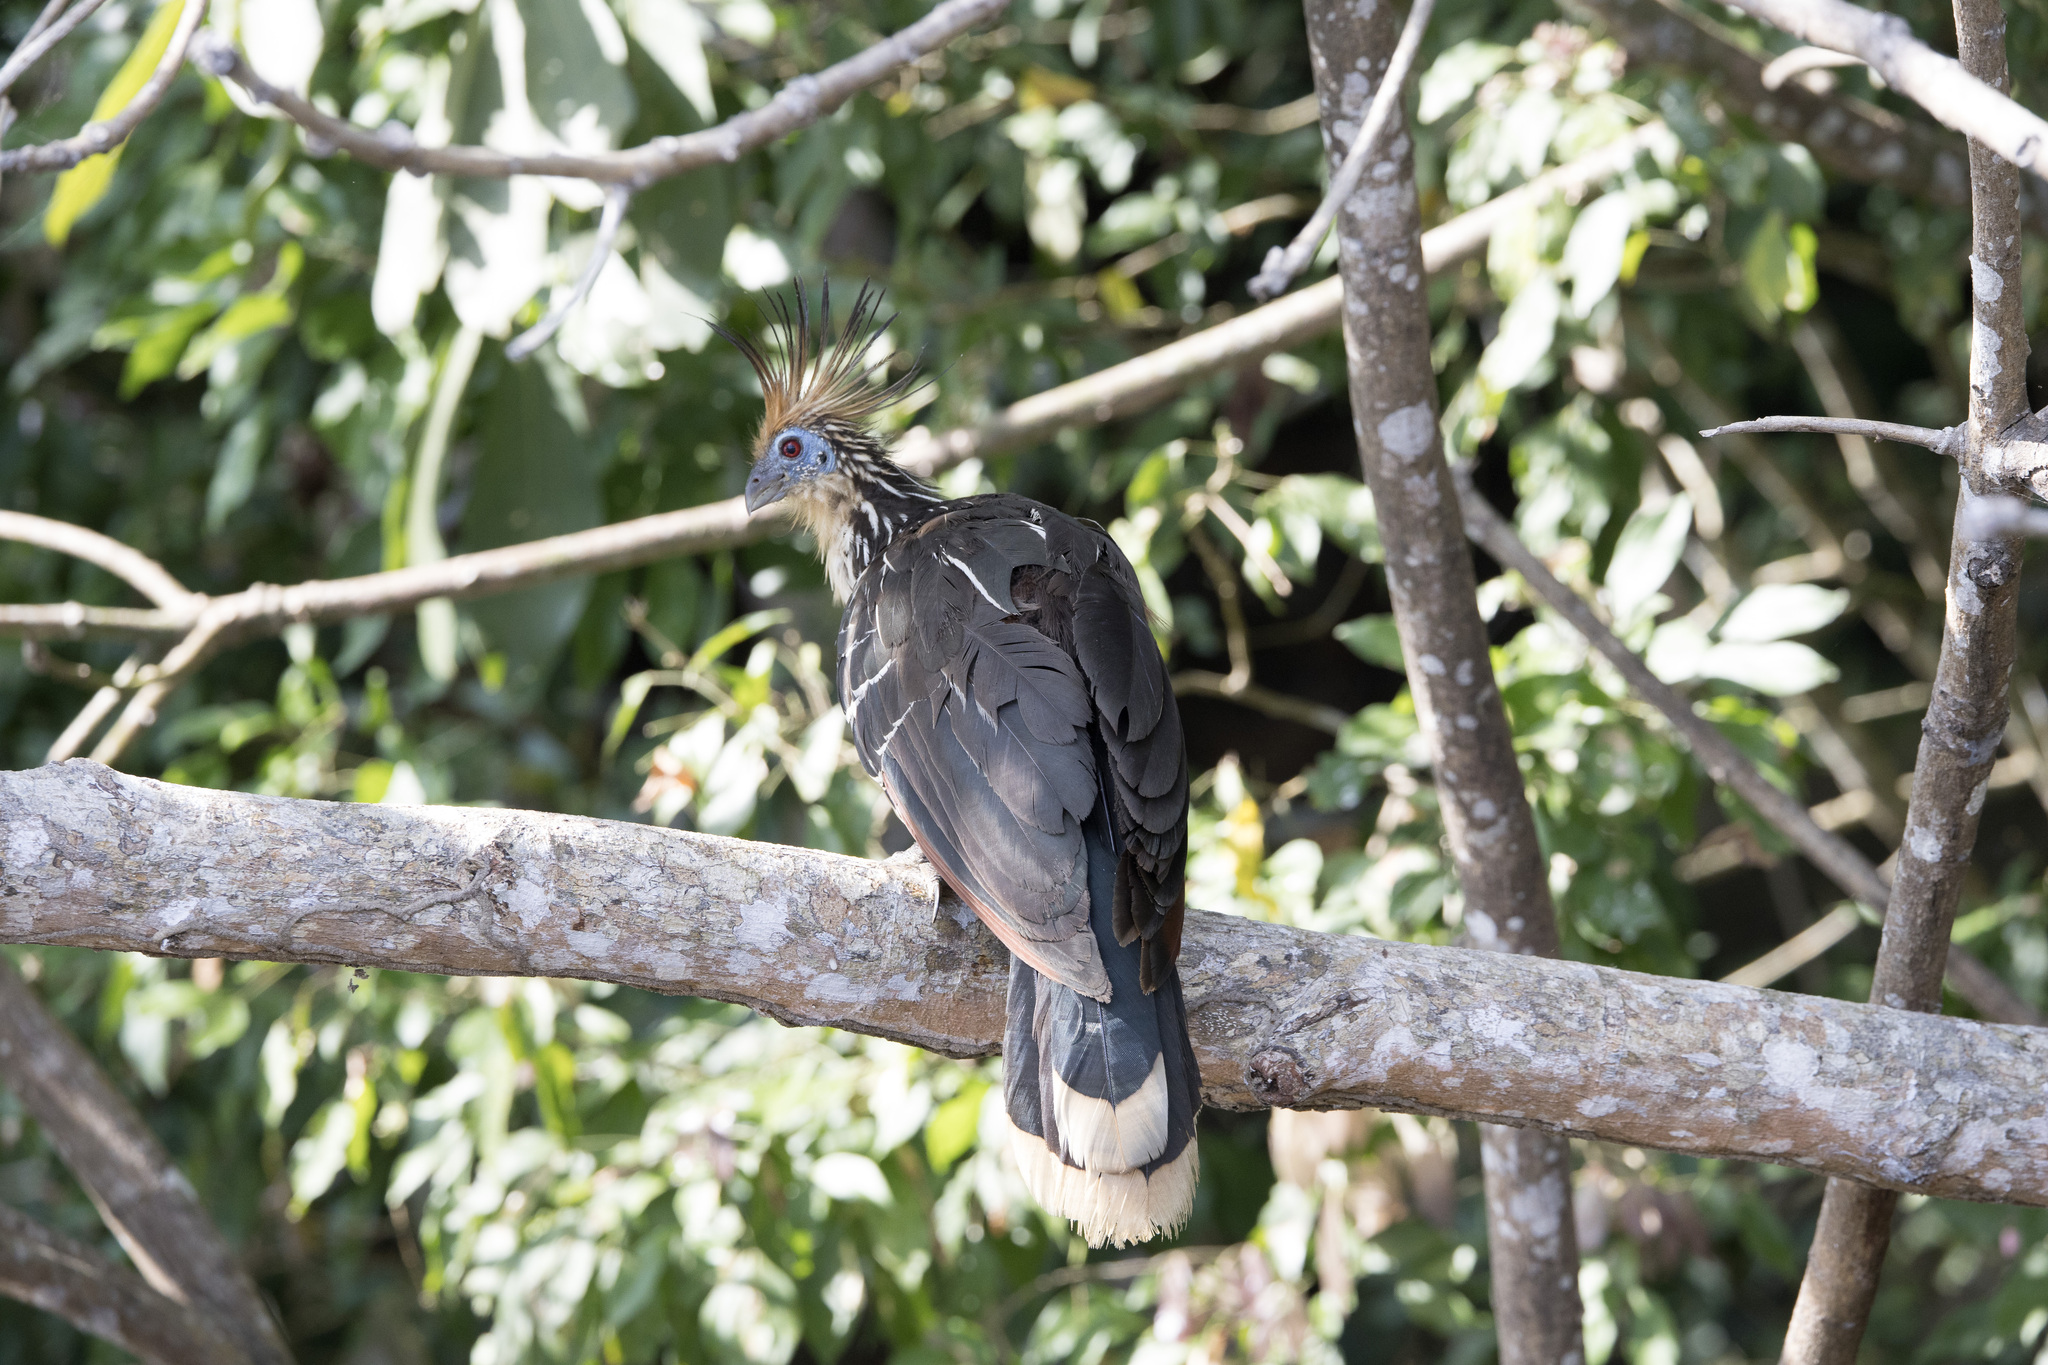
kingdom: Animalia
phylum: Chordata
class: Aves
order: Opisthocomiformes
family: Opisthocomidae
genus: Opisthocomus
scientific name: Opisthocomus hoazin
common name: Hoatzin
